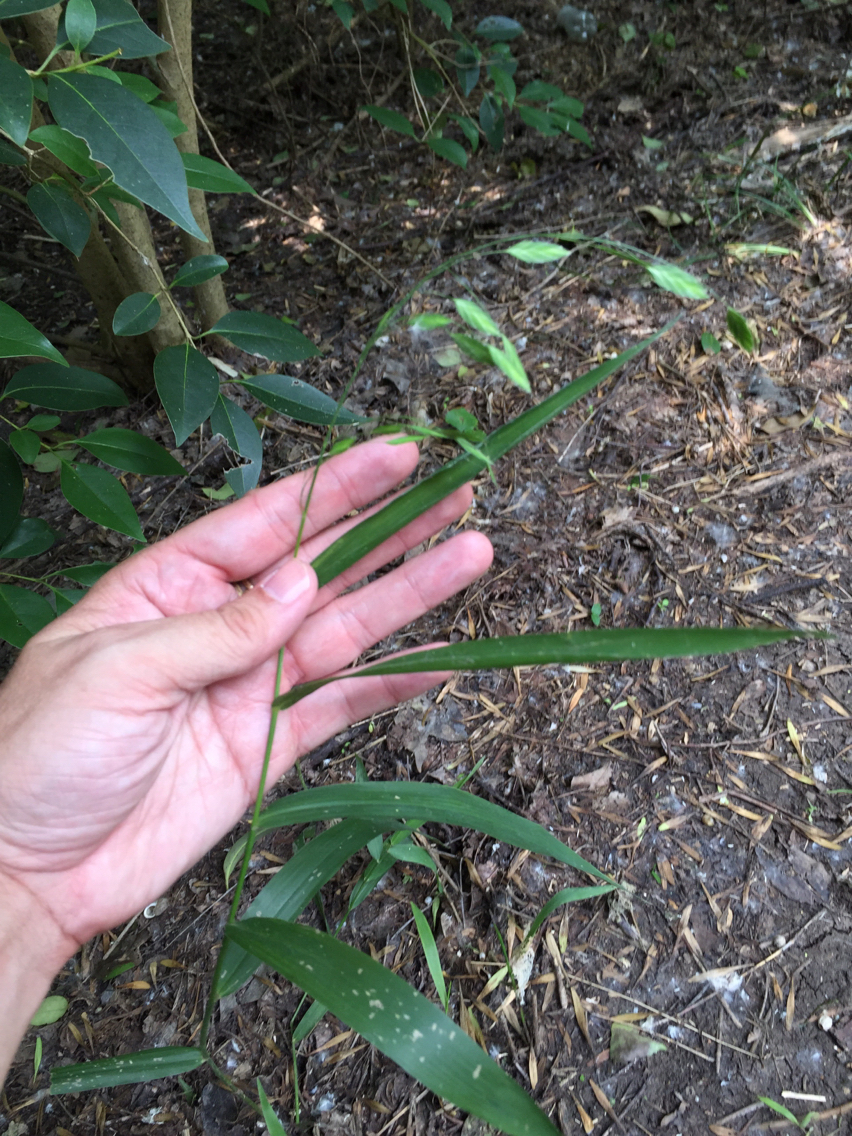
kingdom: Plantae
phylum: Tracheophyta
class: Liliopsida
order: Poales
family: Poaceae
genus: Chasmanthium
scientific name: Chasmanthium latifolium
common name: Broad-leaved chasmanthium
